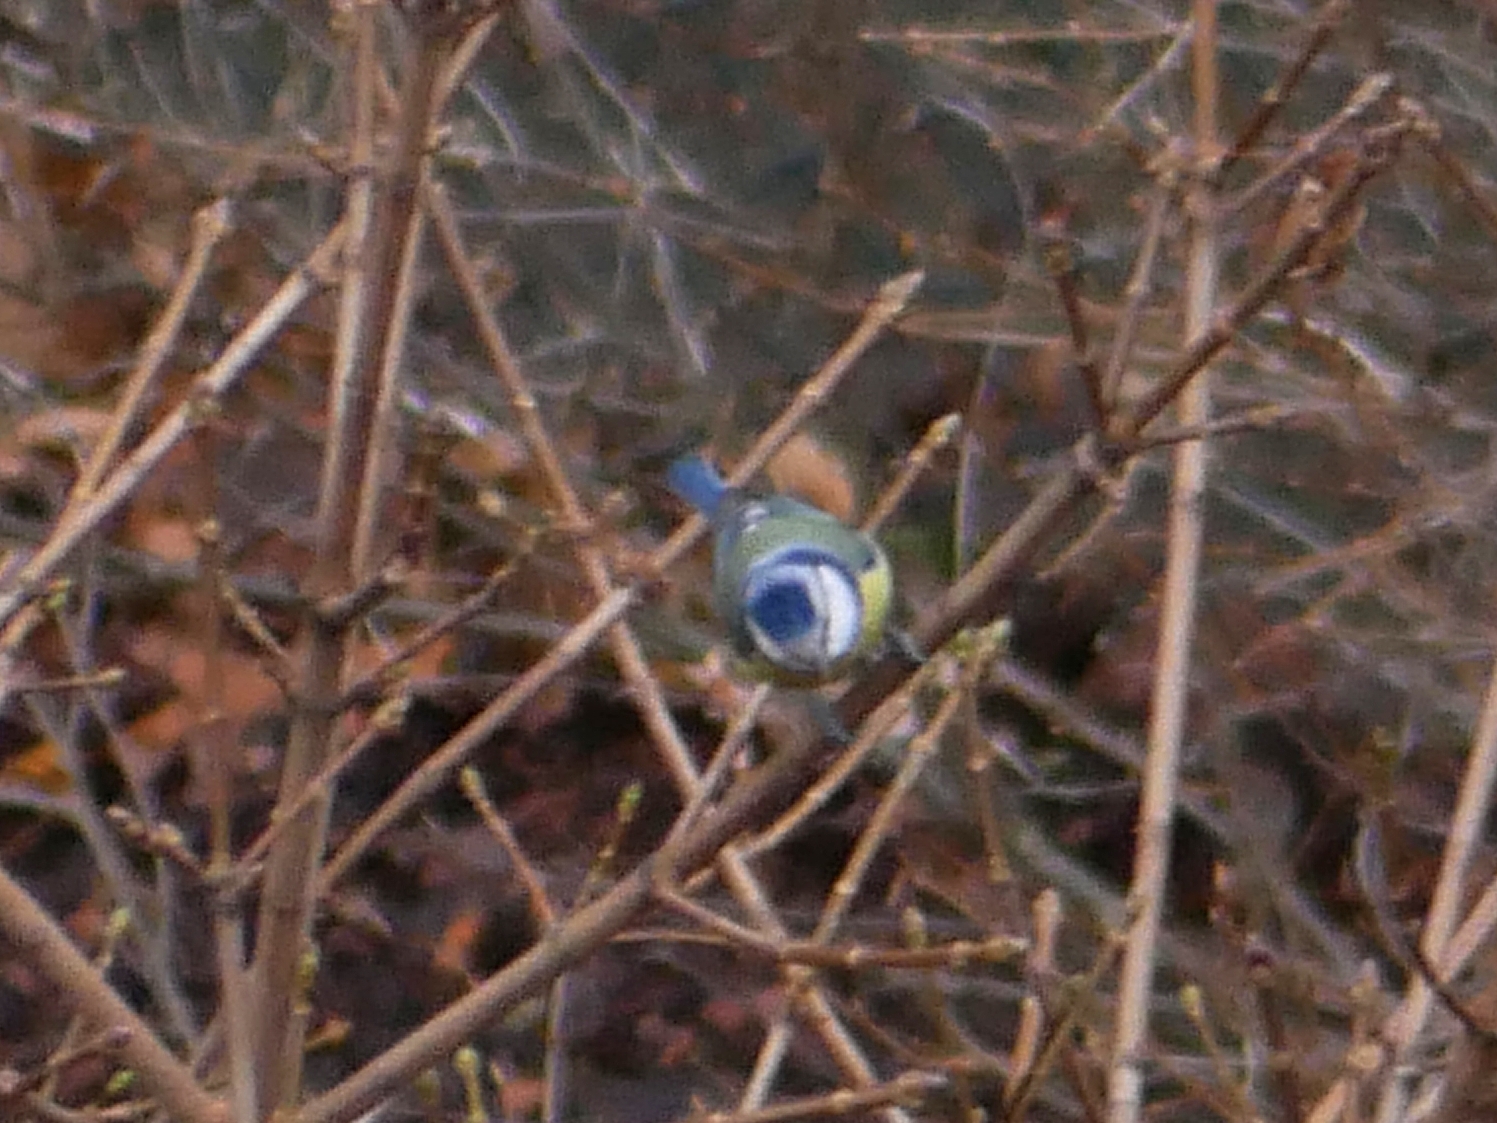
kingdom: Animalia
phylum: Chordata
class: Aves
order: Passeriformes
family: Paridae
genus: Cyanistes
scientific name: Cyanistes caeruleus
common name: Eurasian blue tit
